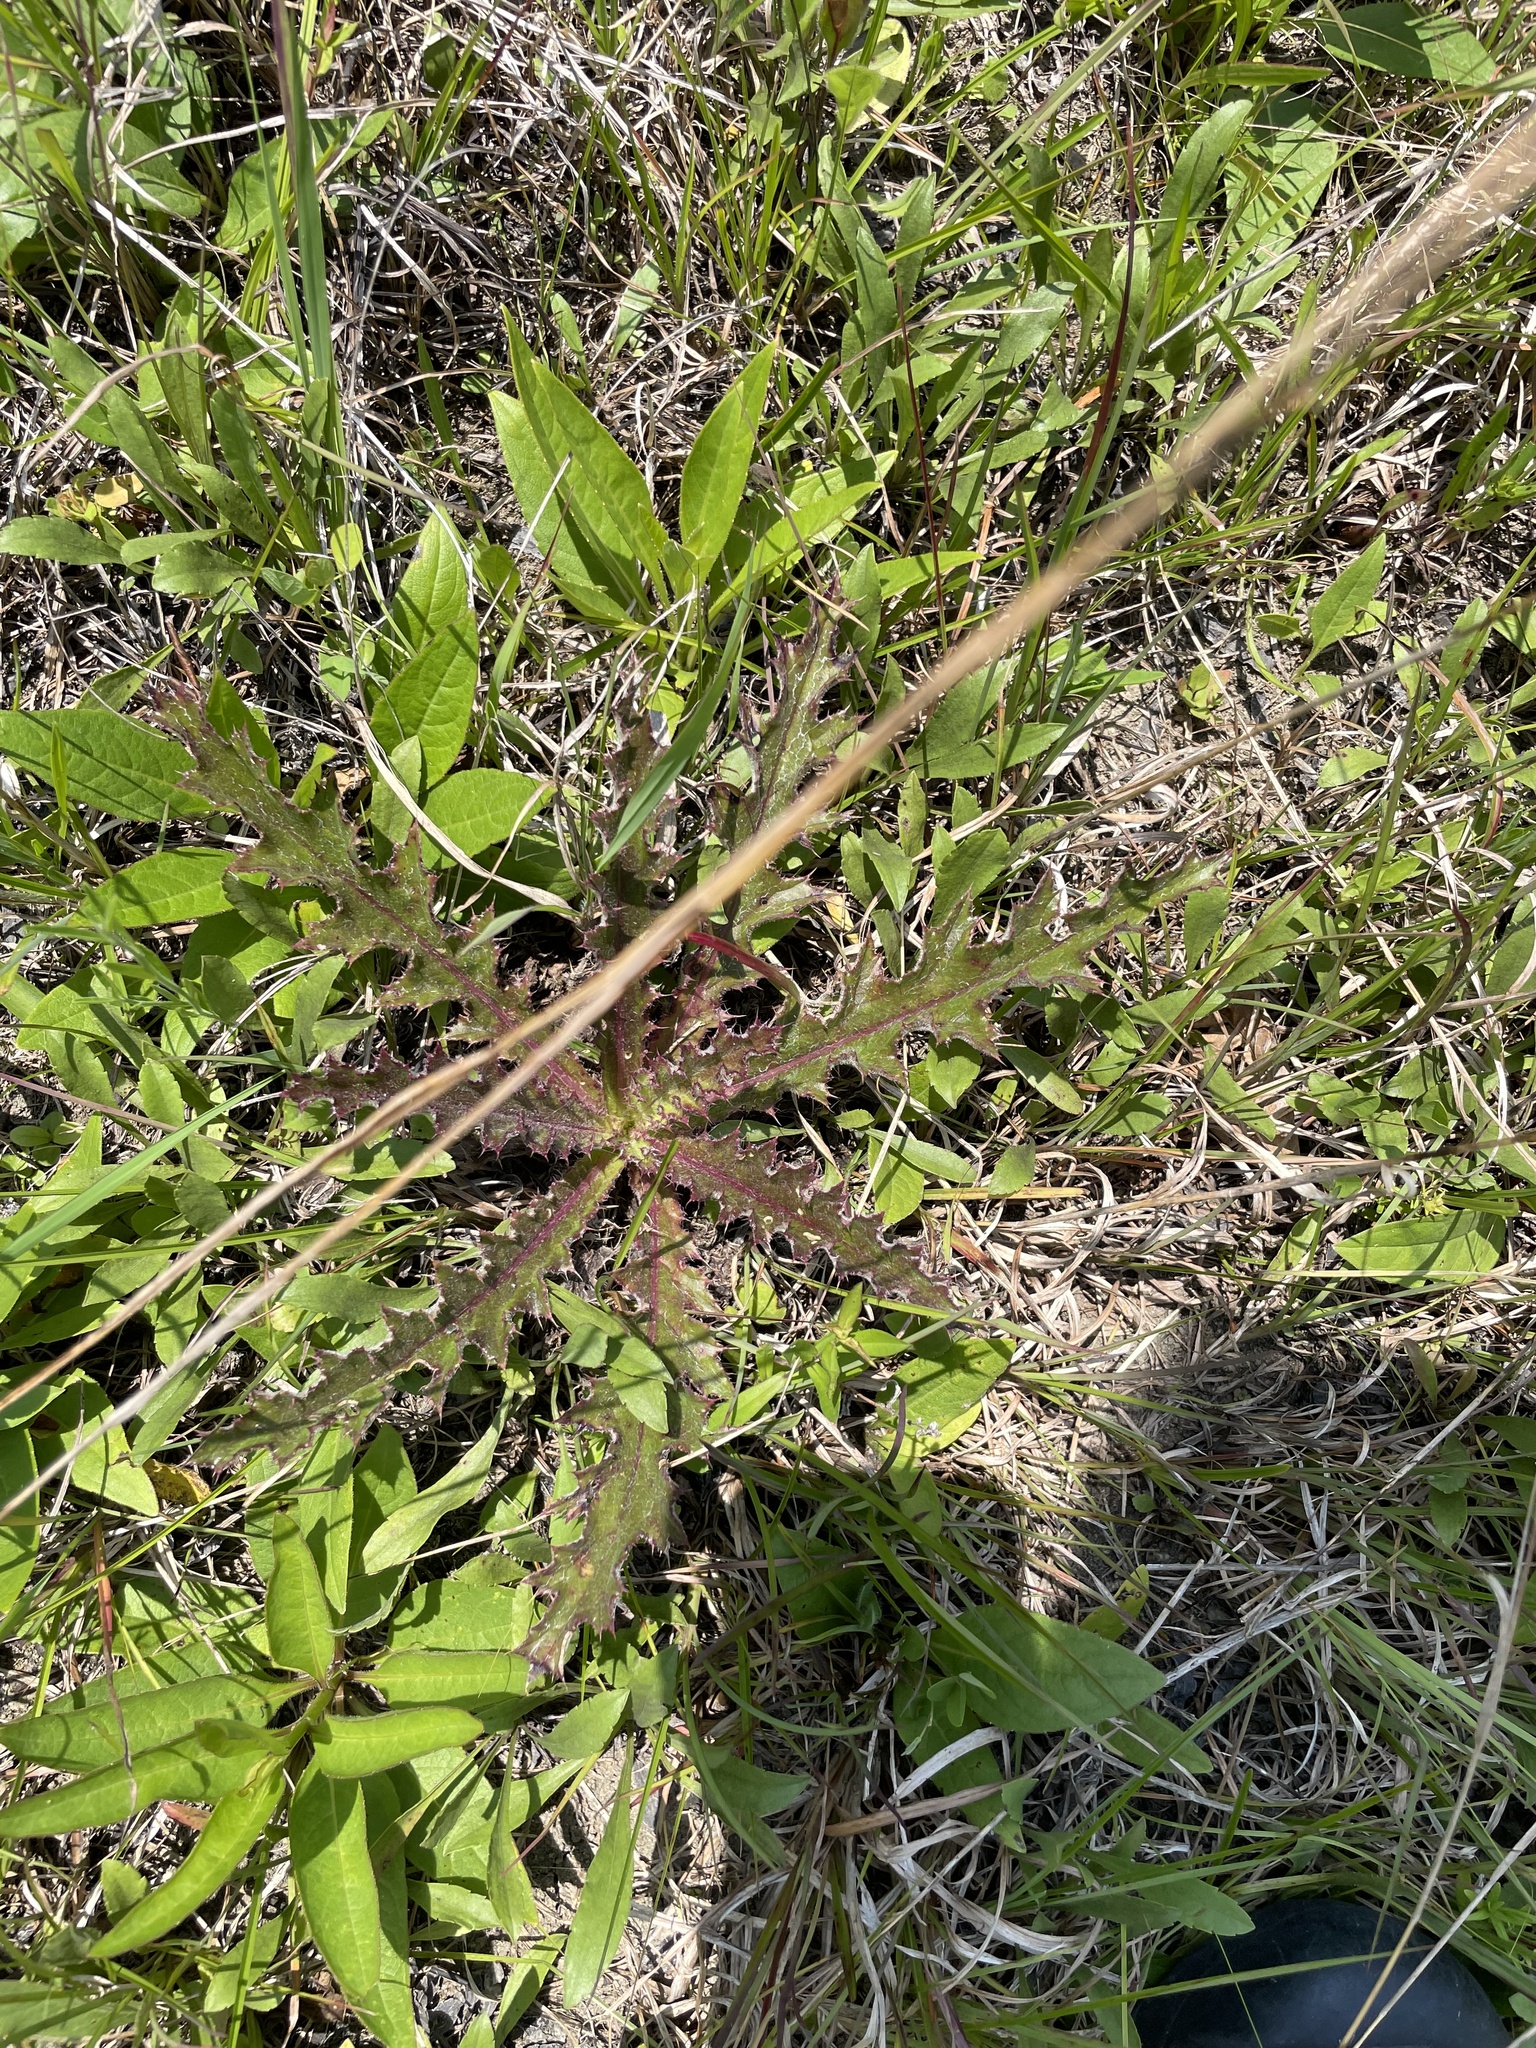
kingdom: Plantae
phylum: Tracheophyta
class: Magnoliopsida
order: Asterales
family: Asteraceae
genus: Cirsium
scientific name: Cirsium horridulum
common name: Bristly thistle
